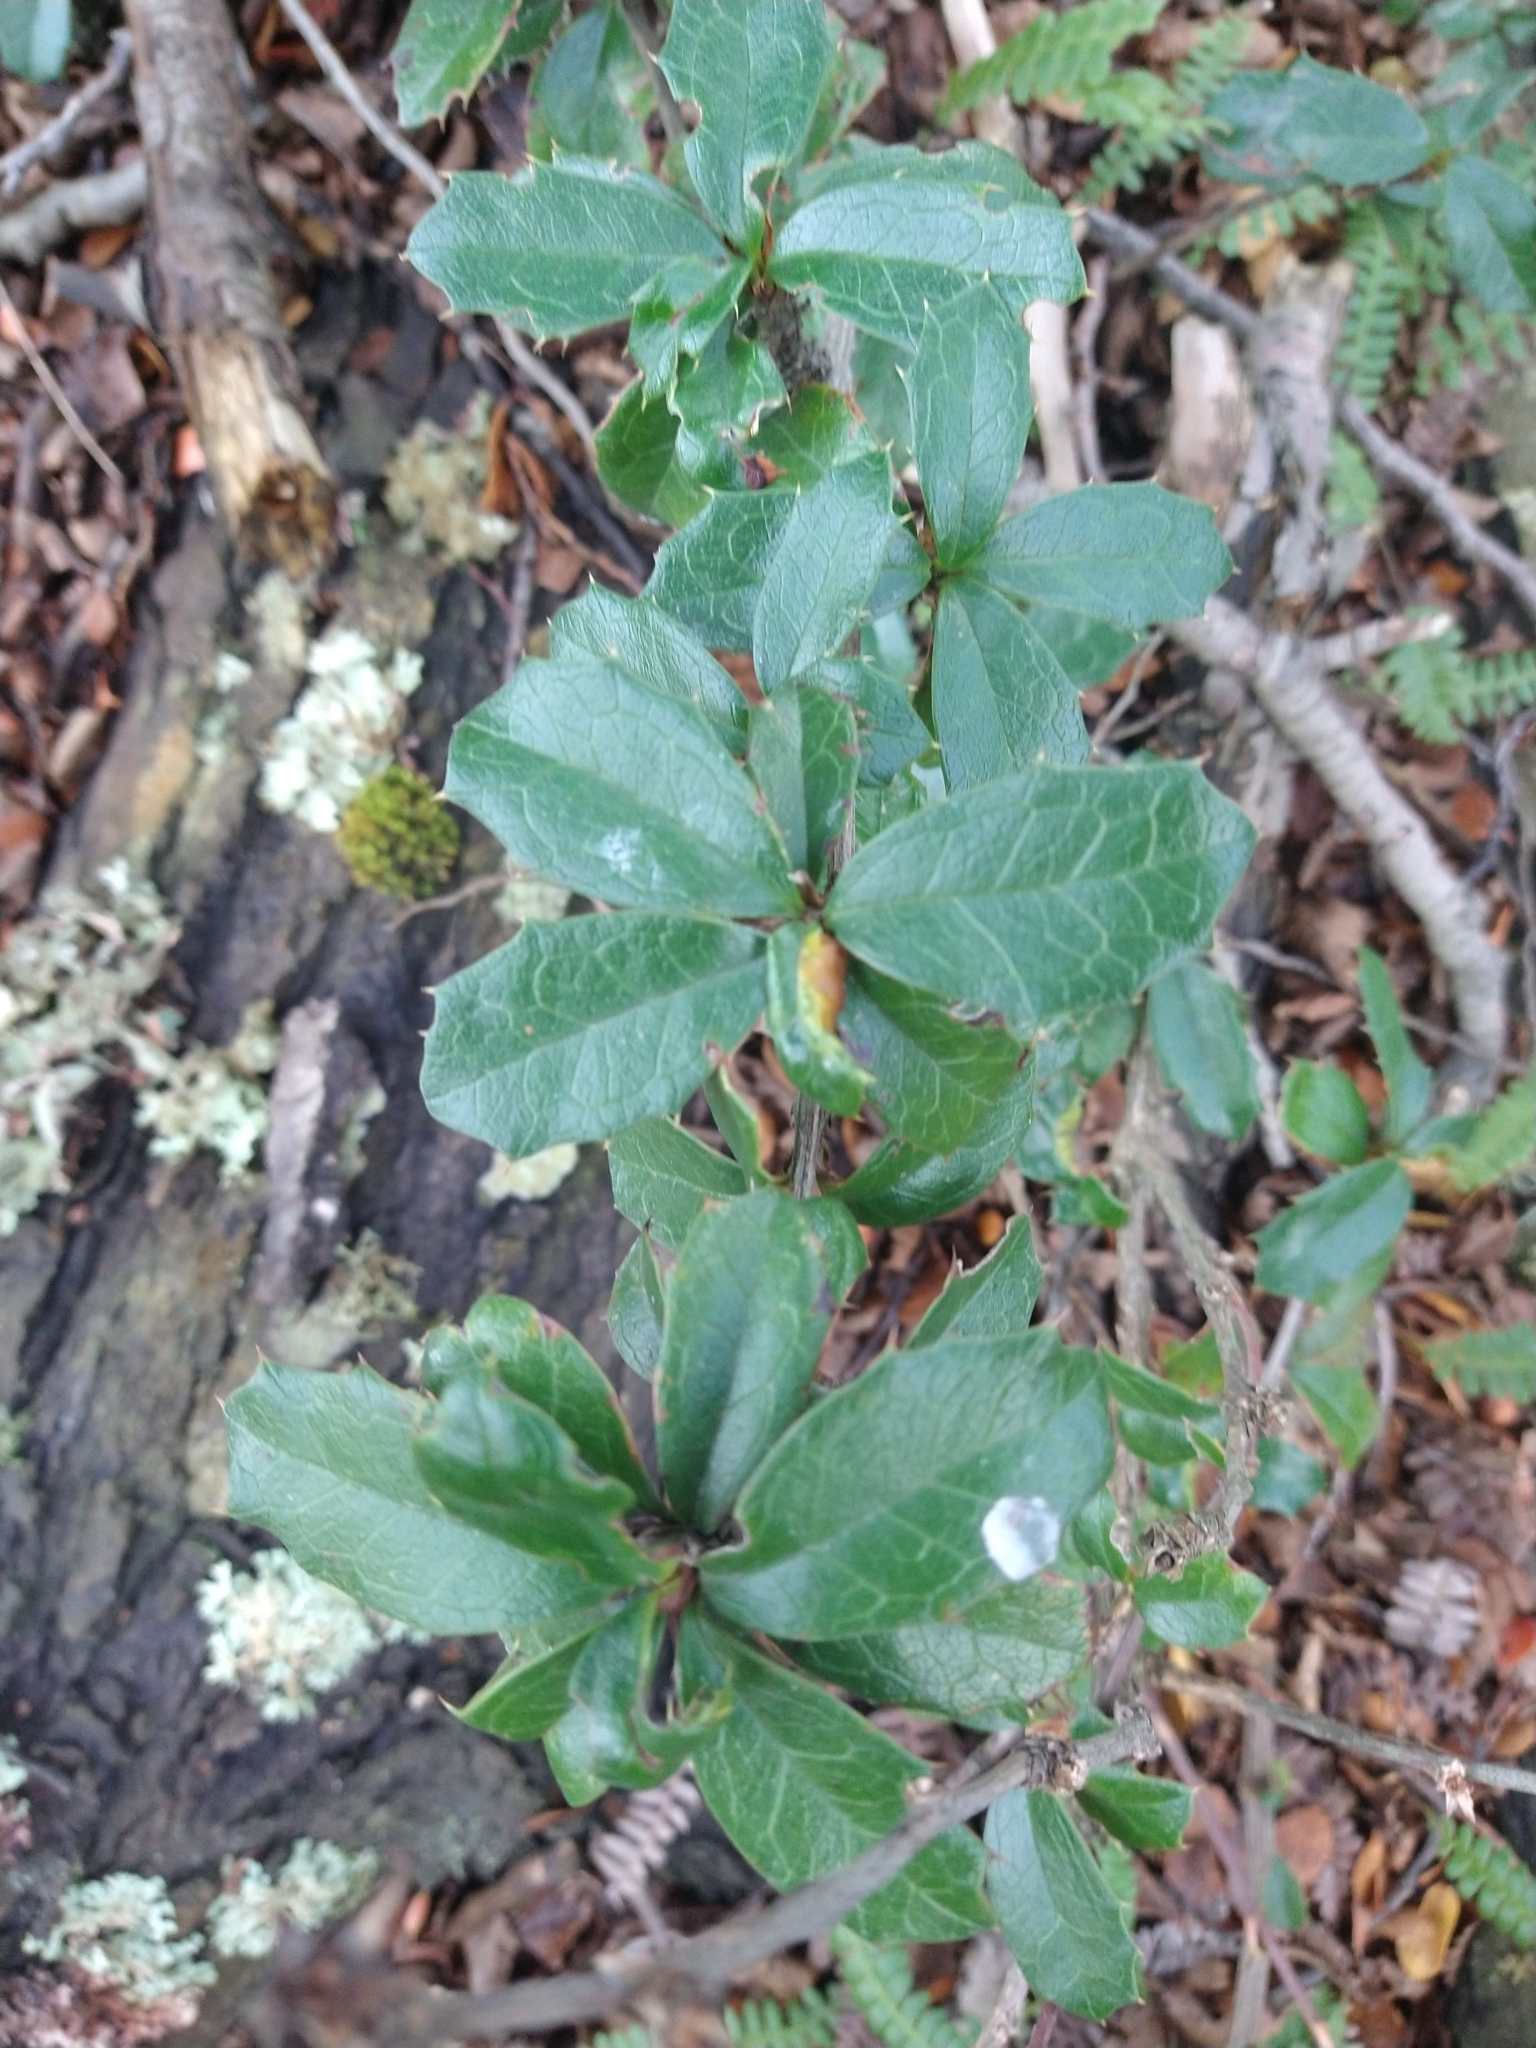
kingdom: Plantae
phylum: Tracheophyta
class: Magnoliopsida
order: Ranunculales
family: Berberidaceae
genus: Berberis
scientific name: Berberis ilicifolia
